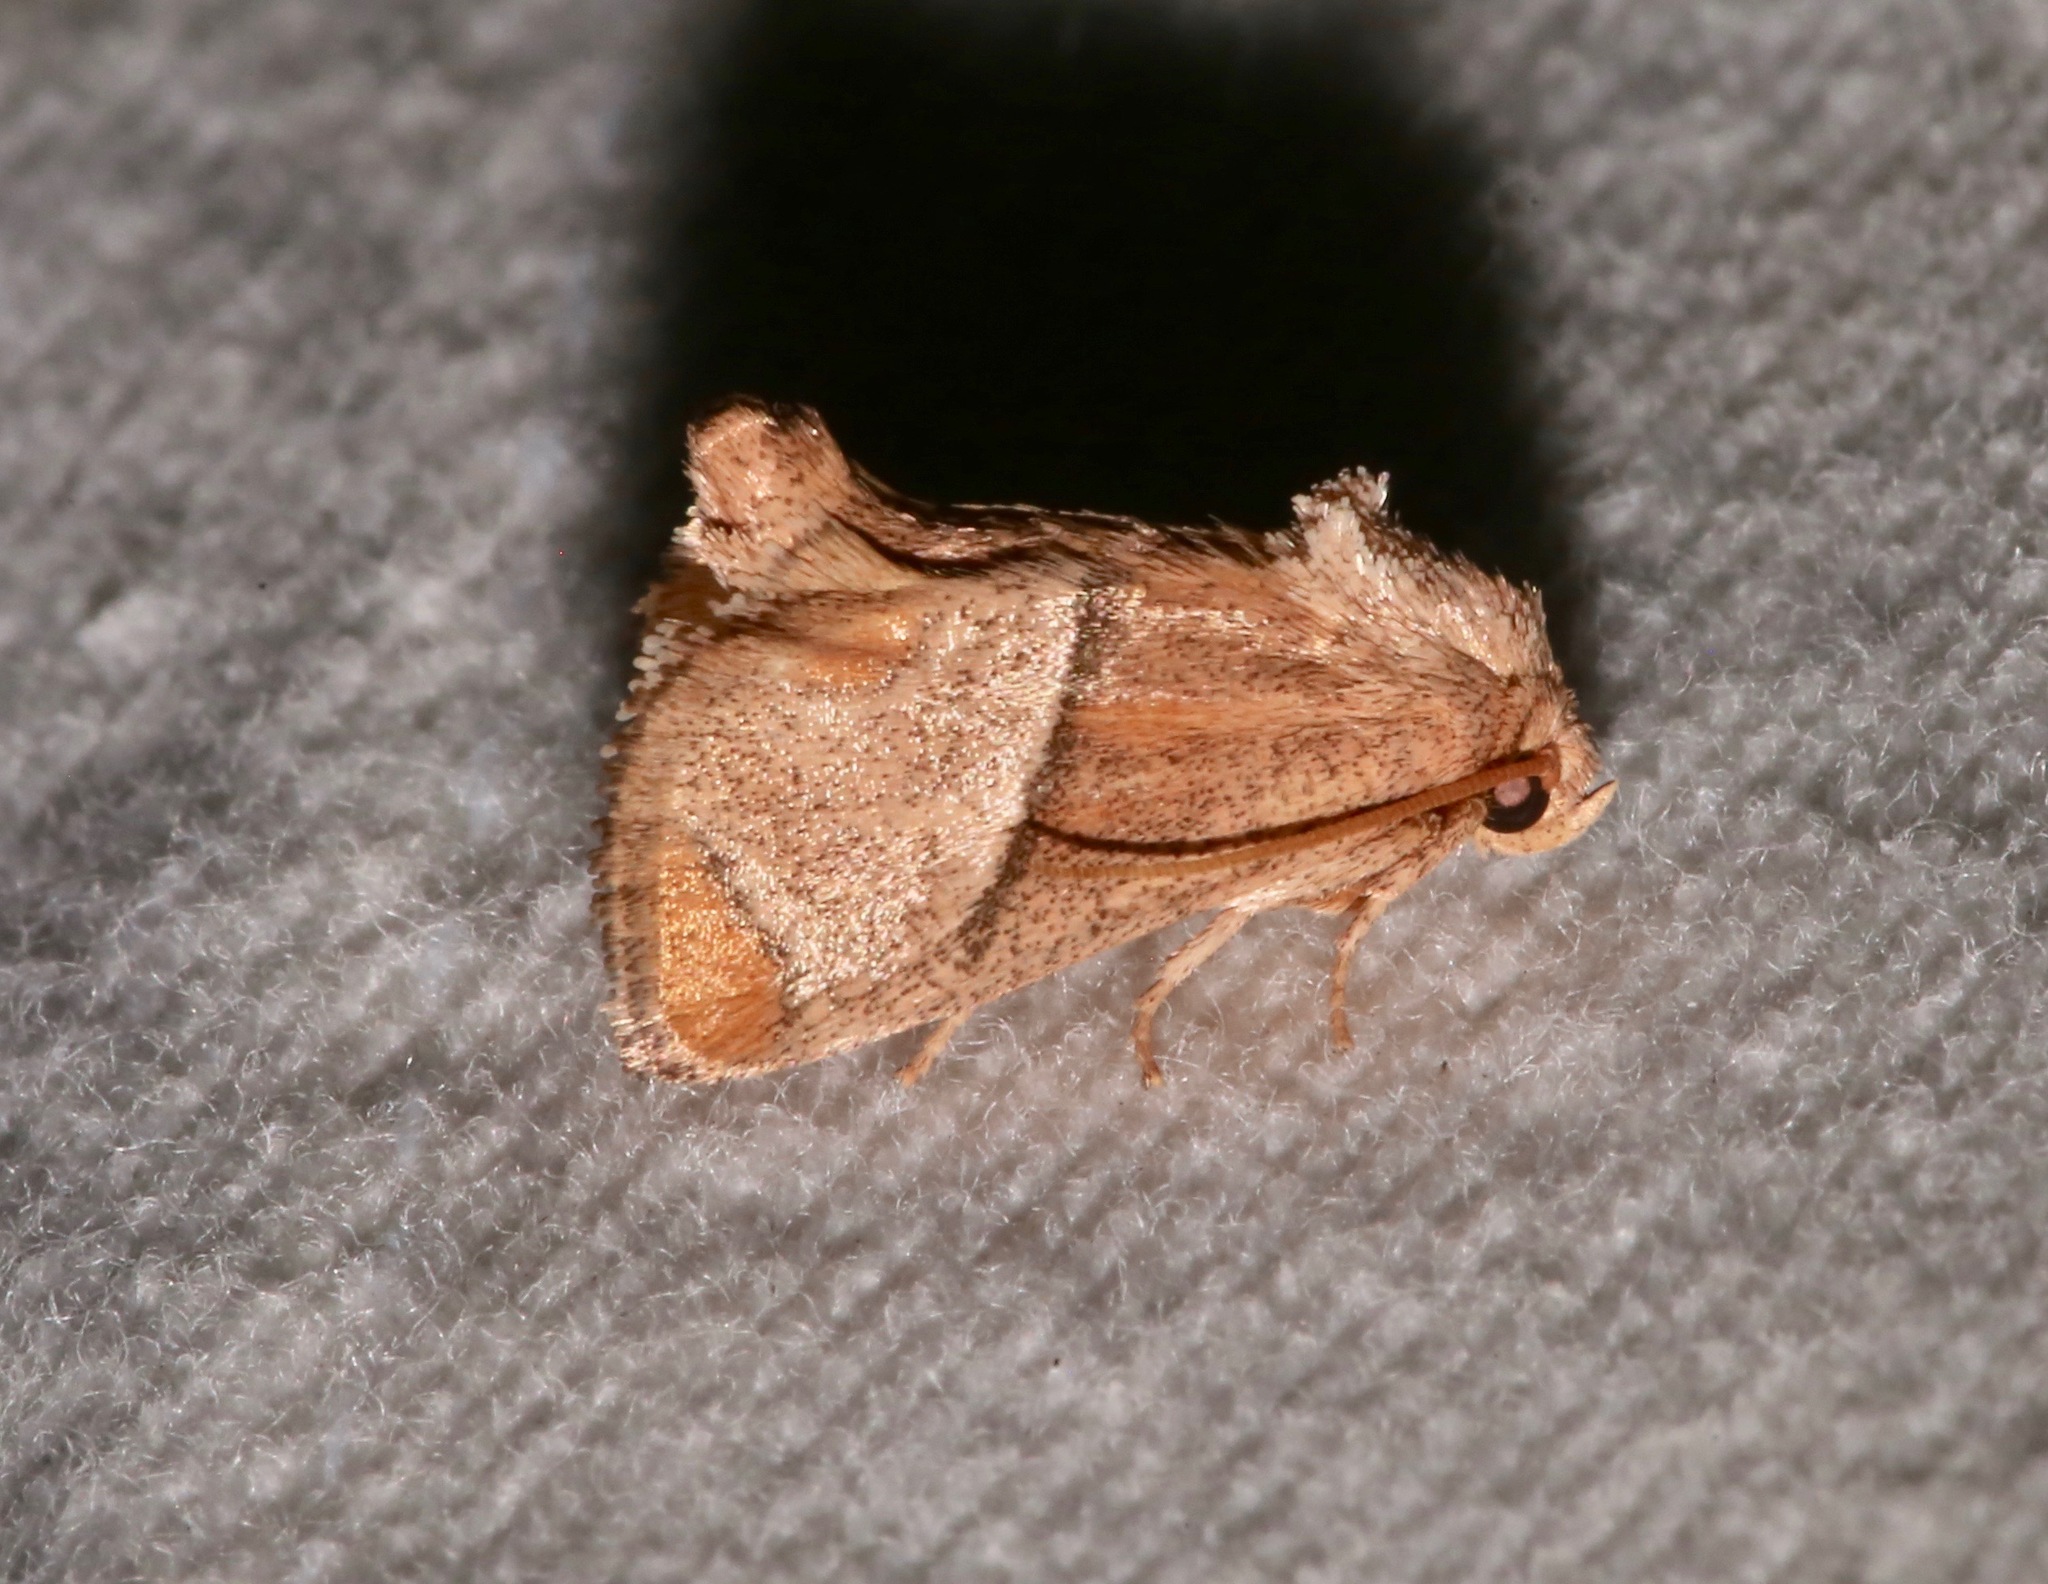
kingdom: Animalia
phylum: Arthropoda
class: Insecta
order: Lepidoptera
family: Limacodidae
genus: Apoda
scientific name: Apoda rectilinea
